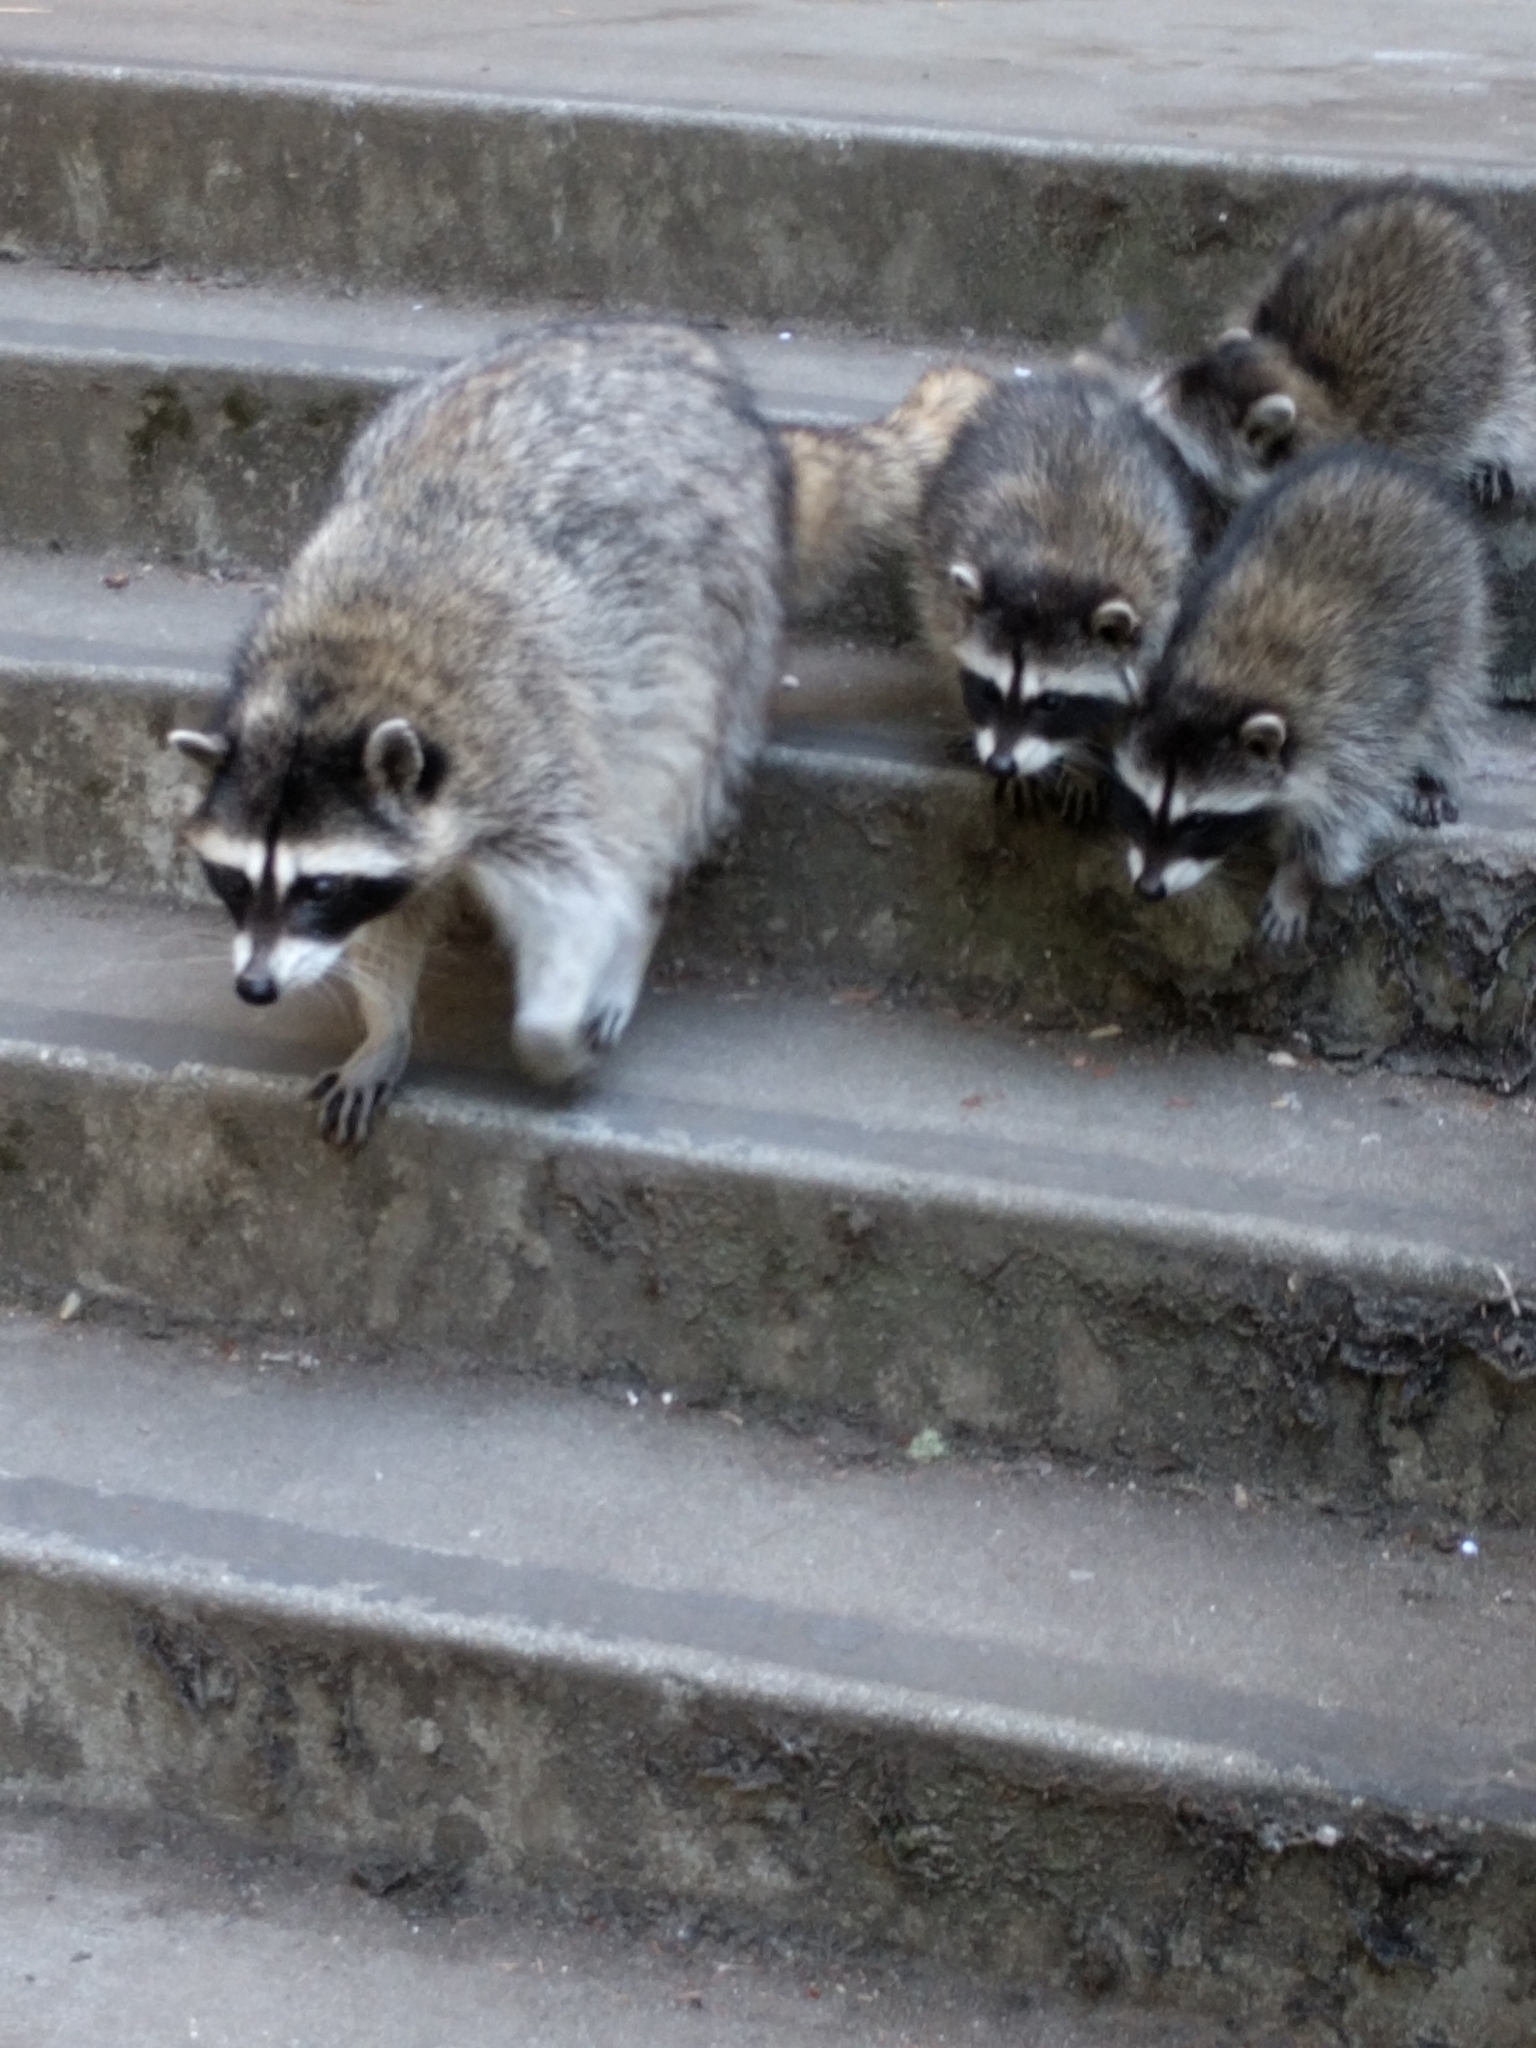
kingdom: Animalia
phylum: Chordata
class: Mammalia
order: Carnivora
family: Procyonidae
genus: Procyon
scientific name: Procyon lotor
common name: Raccoon
